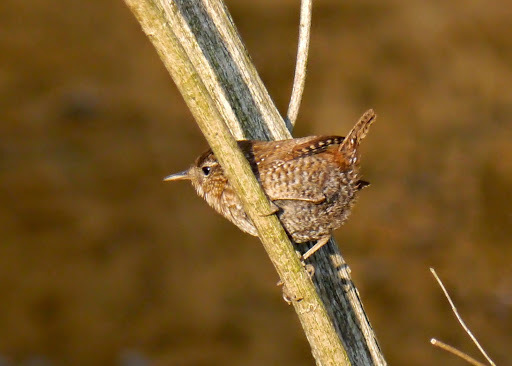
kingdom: Animalia
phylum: Chordata
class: Aves
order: Passeriformes
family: Troglodytidae
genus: Troglodytes
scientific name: Troglodytes hiemalis
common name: Winter wren
